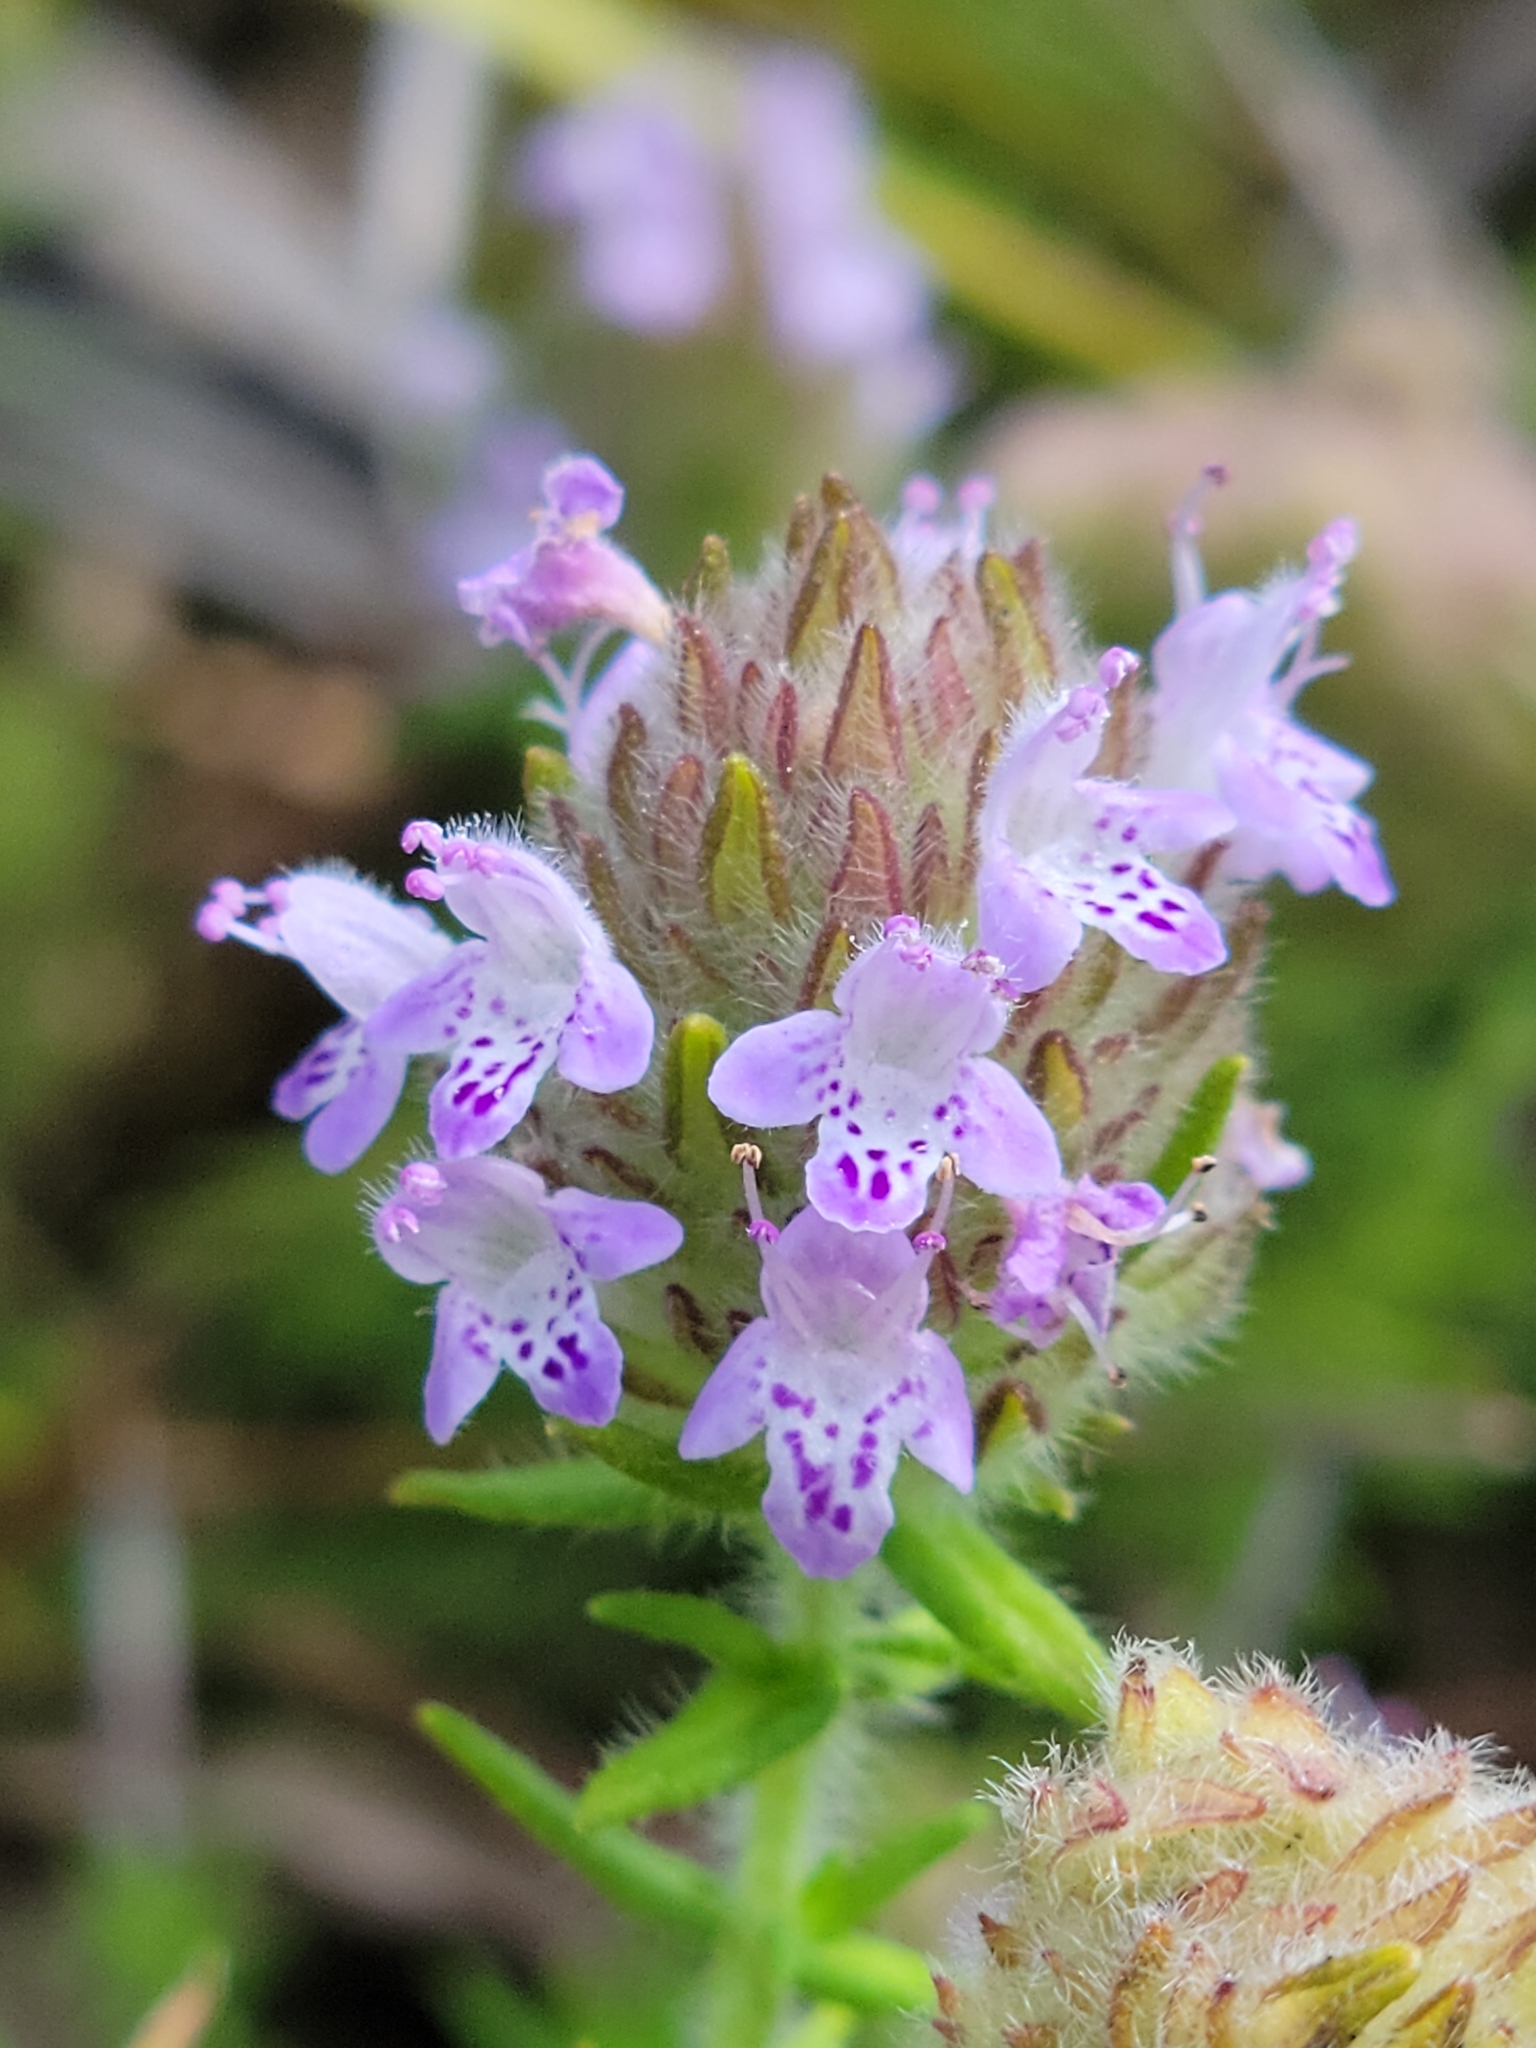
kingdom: Plantae
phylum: Tracheophyta
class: Magnoliopsida
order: Lamiales
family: Lamiaceae
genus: Piloblephis
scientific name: Piloblephis rigida
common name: Wild pennyroyal
